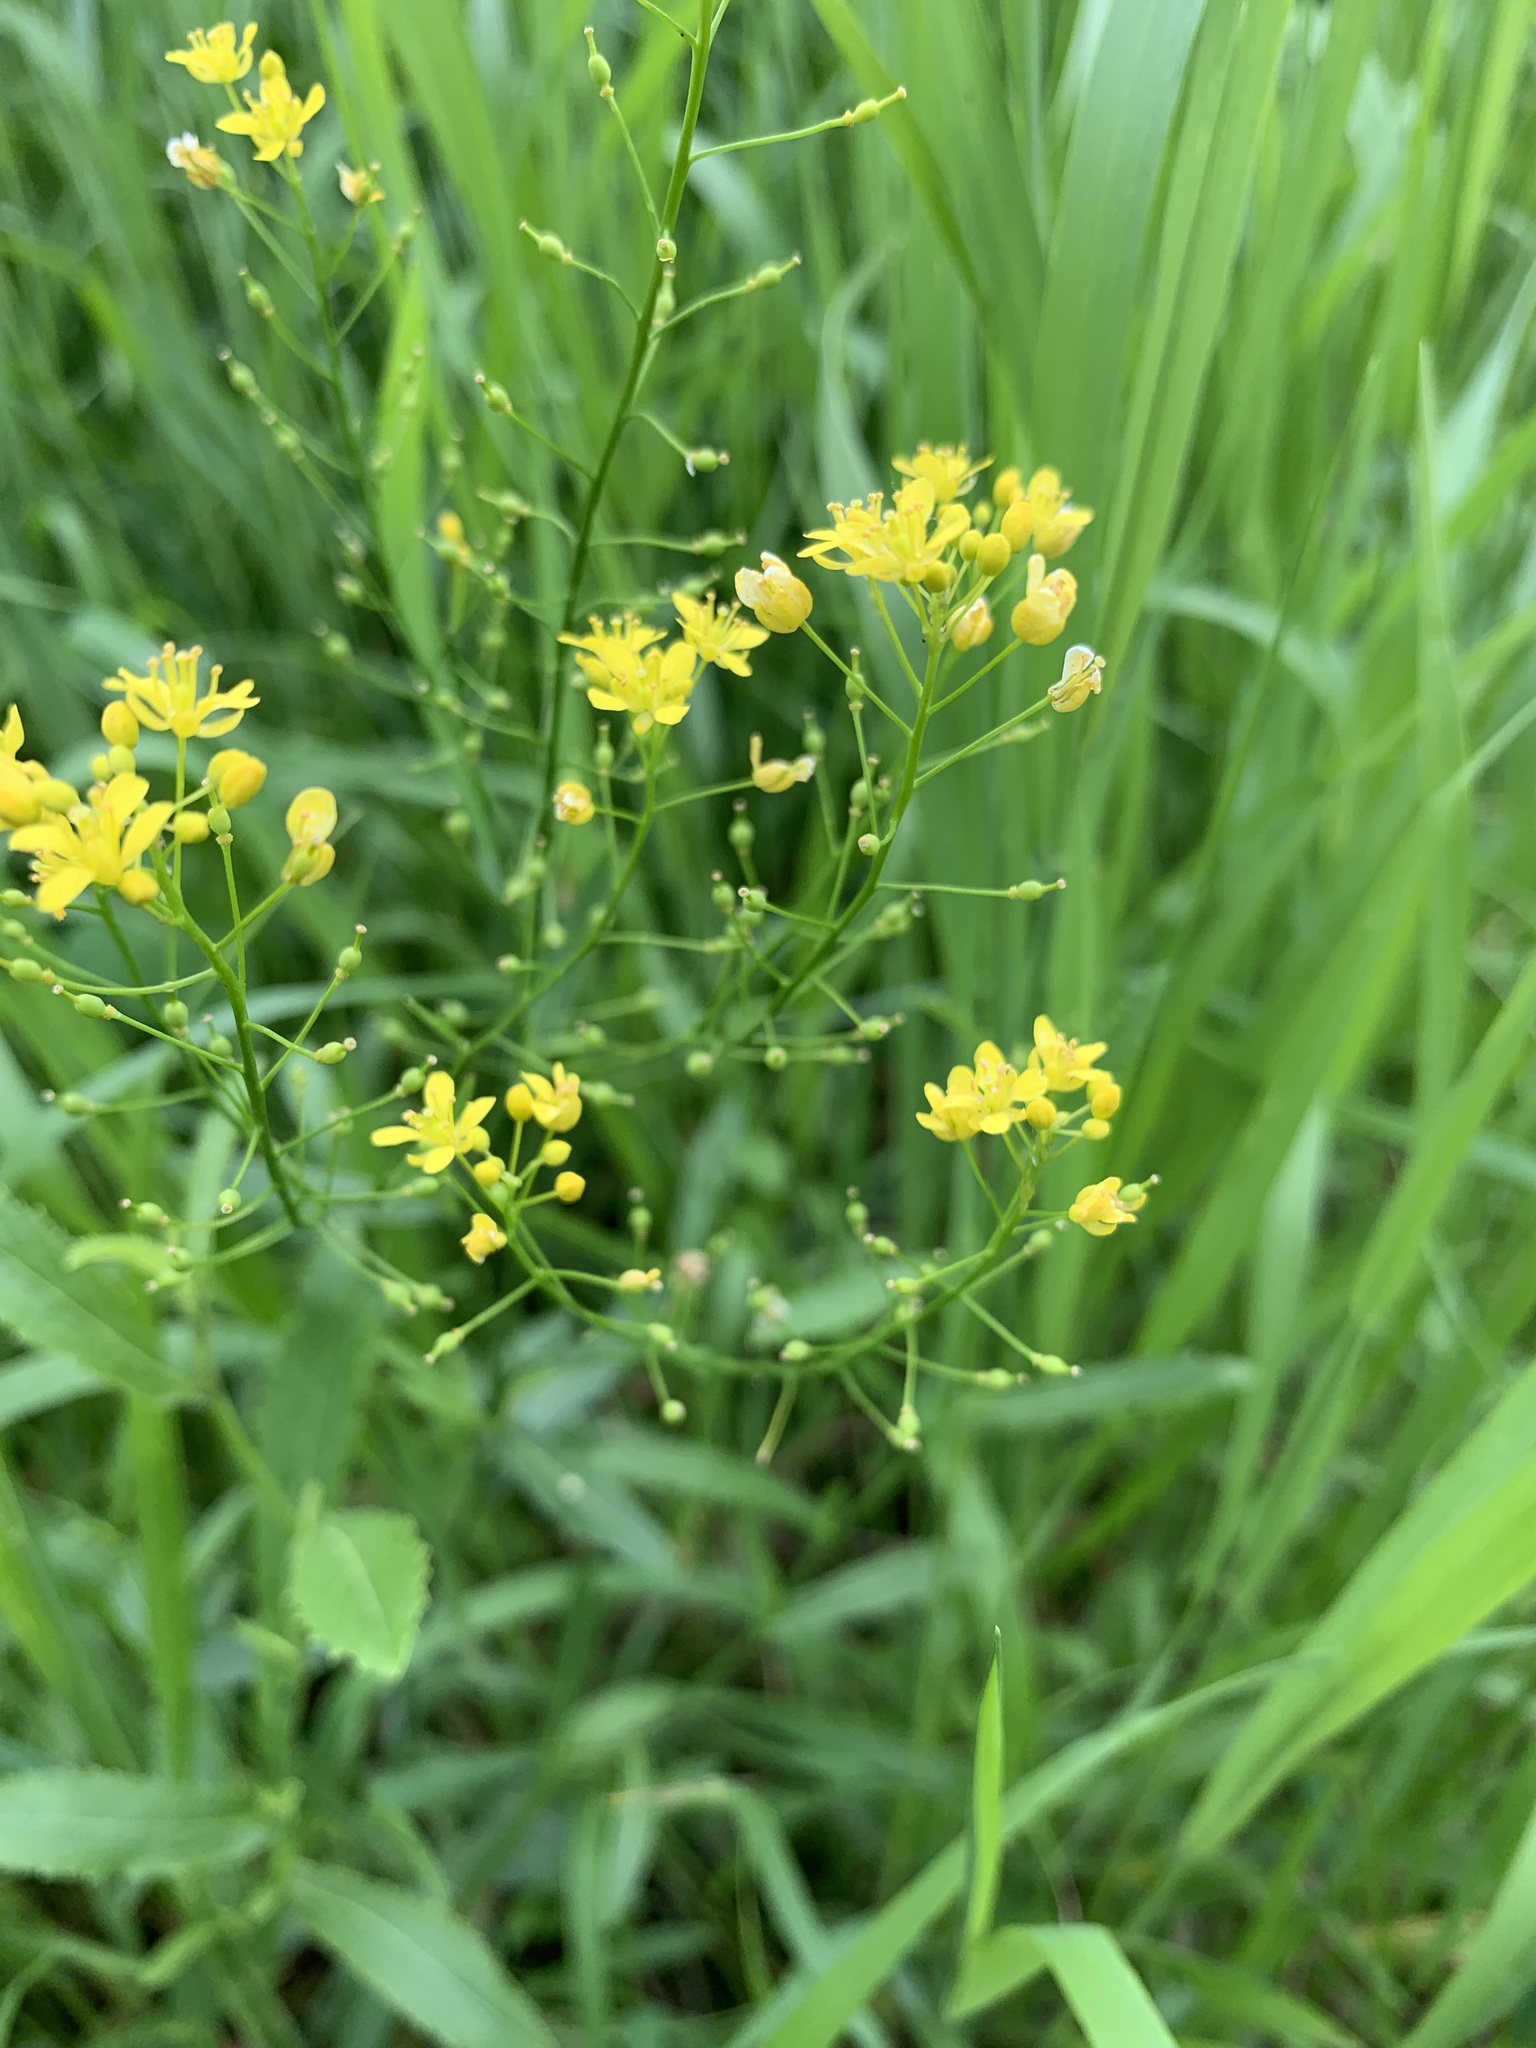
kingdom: Plantae
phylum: Tracheophyta
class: Magnoliopsida
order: Brassicales
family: Brassicaceae
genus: Rorippa
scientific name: Rorippa amphibia
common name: Great yellow-cress
